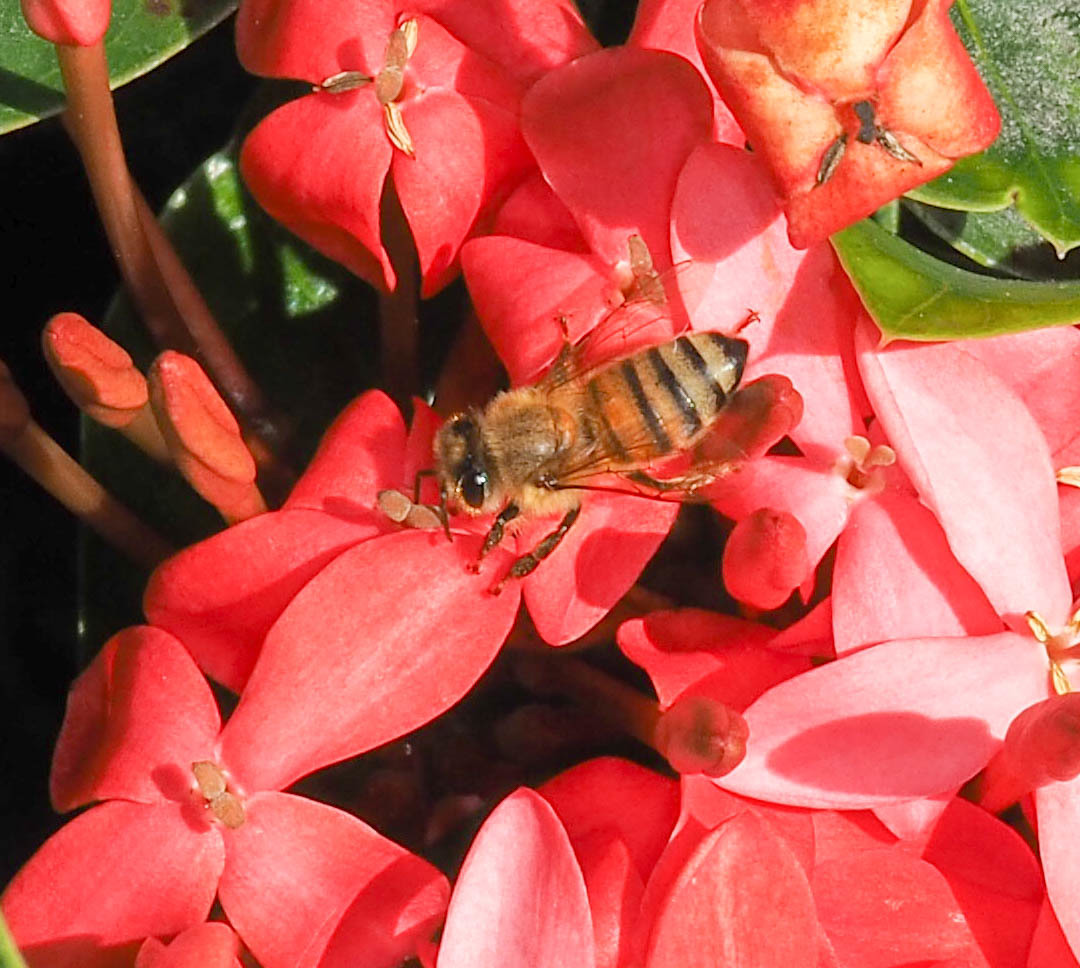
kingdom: Animalia
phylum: Arthropoda
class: Insecta
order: Hymenoptera
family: Apidae
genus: Apis
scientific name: Apis mellifera
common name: Honey bee
